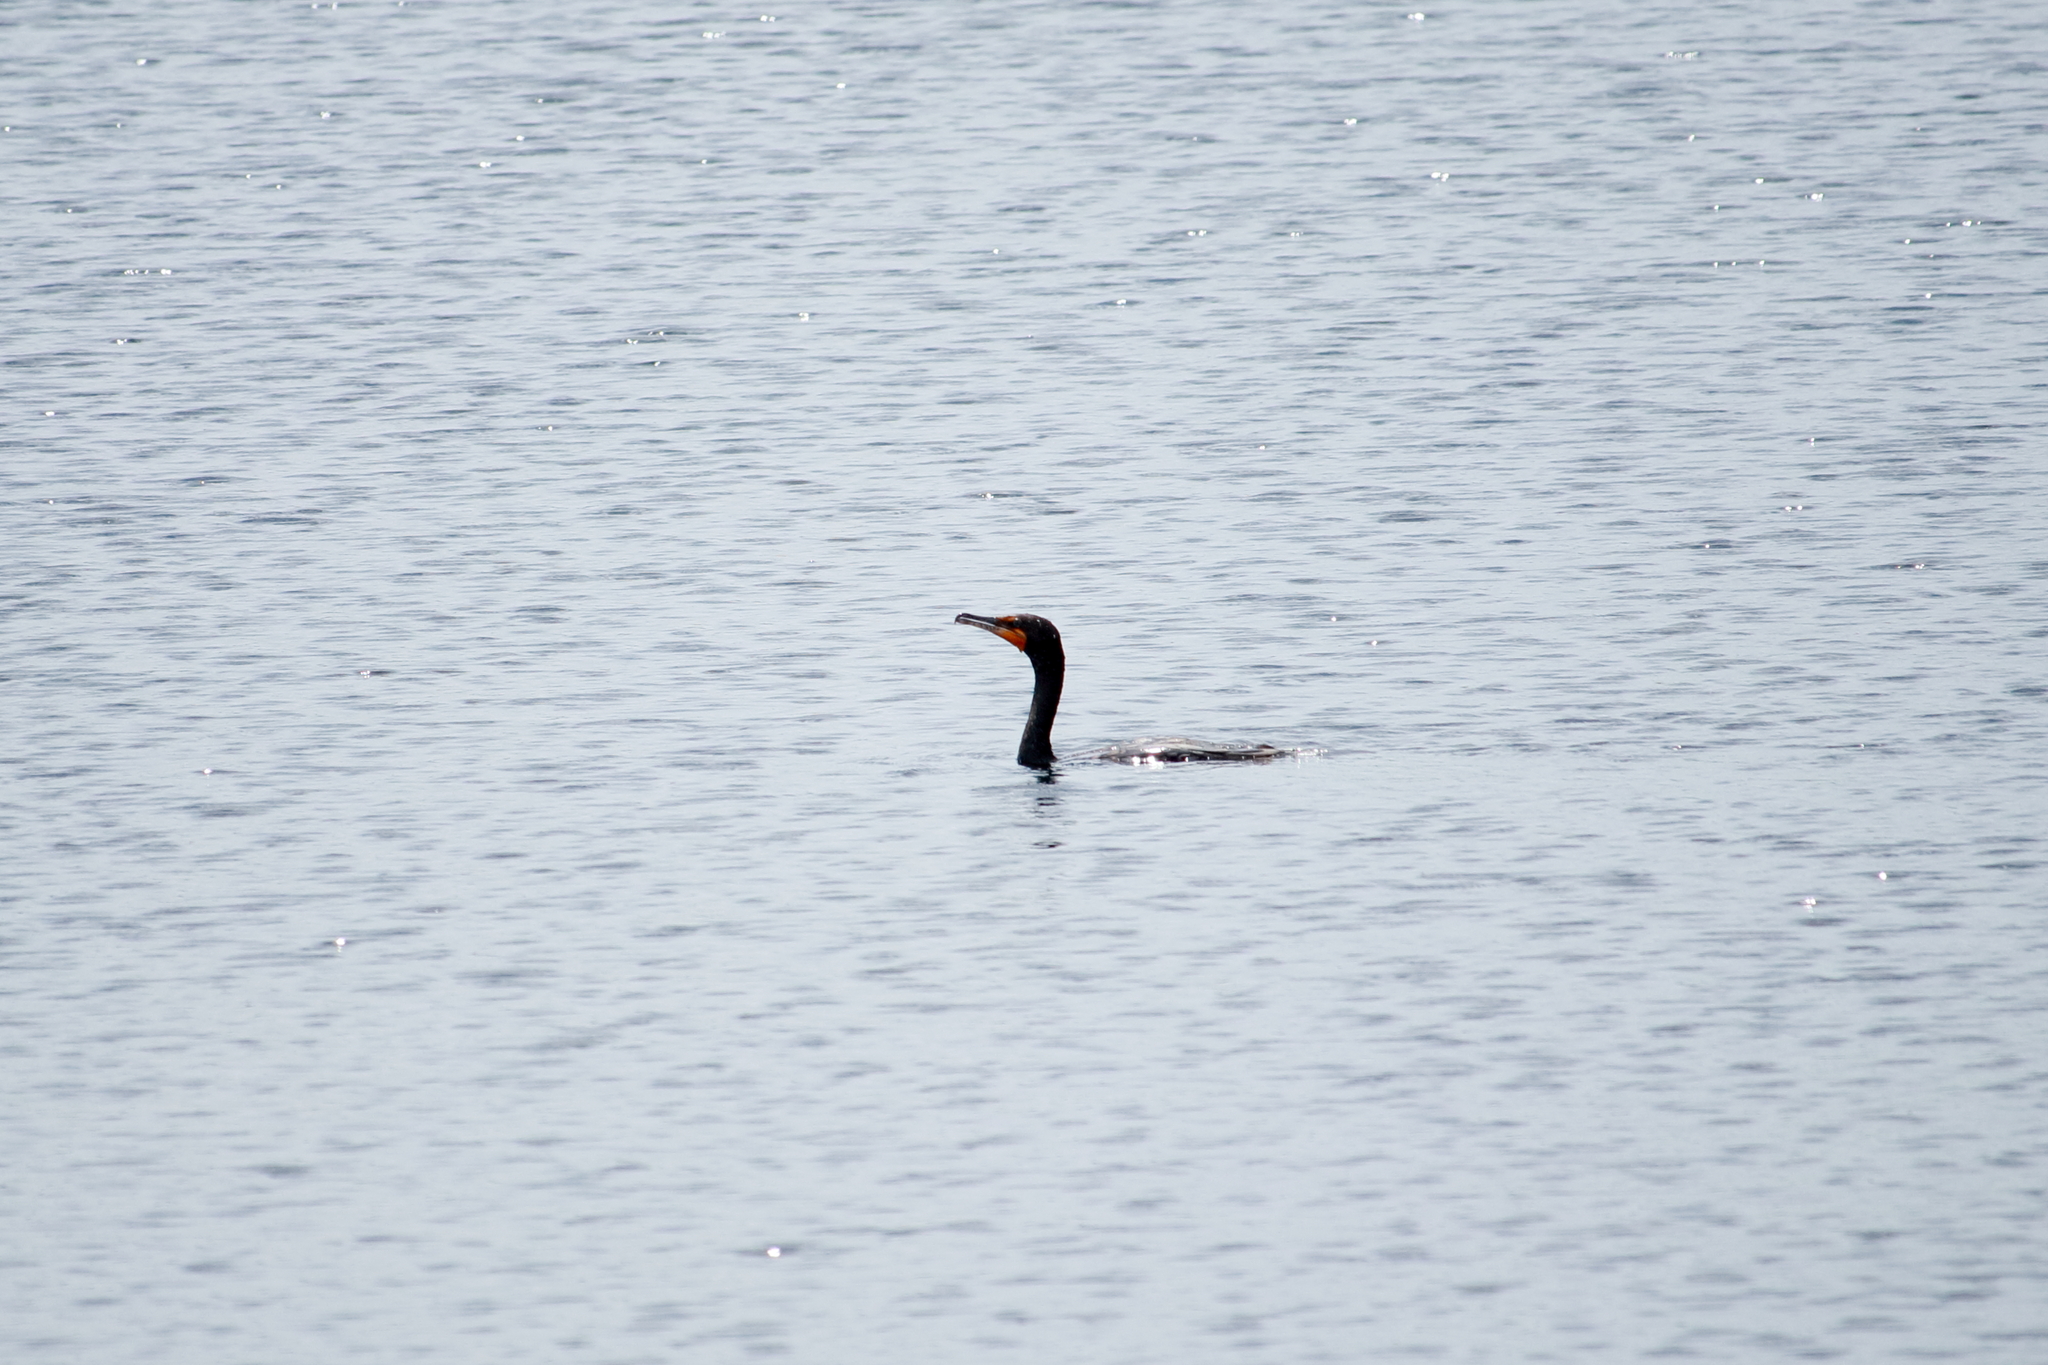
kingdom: Animalia
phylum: Chordata
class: Aves
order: Suliformes
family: Phalacrocoracidae
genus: Phalacrocorax
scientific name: Phalacrocorax auritus
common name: Double-crested cormorant
